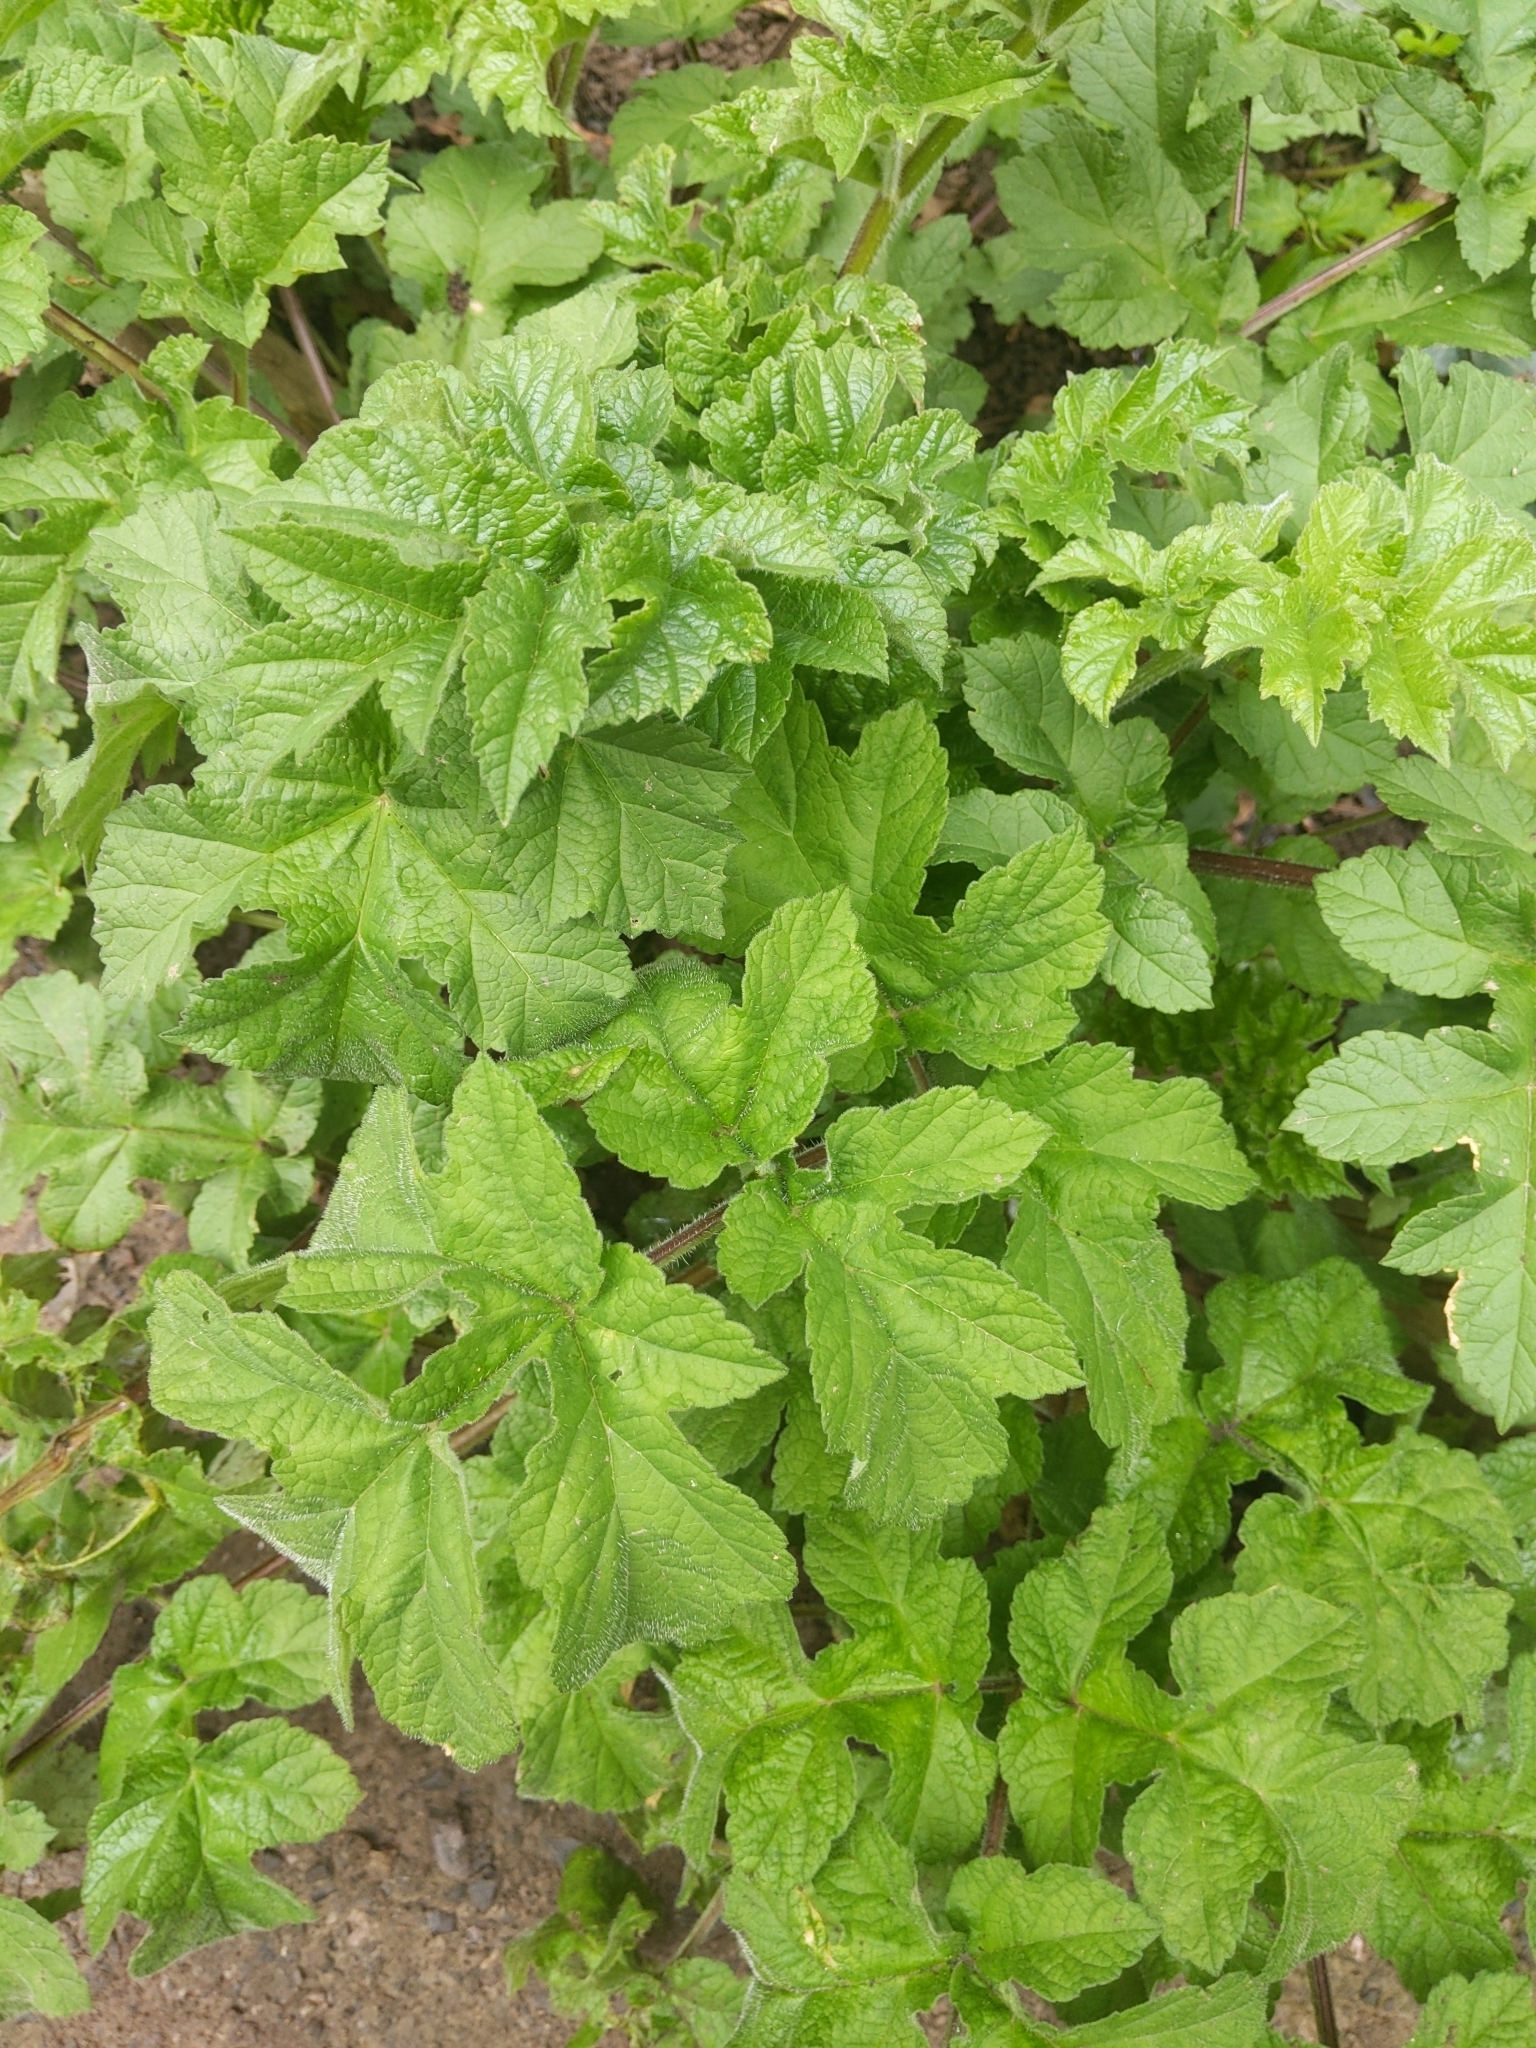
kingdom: Plantae
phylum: Tracheophyta
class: Magnoliopsida
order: Apiales
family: Apiaceae
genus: Heracleum
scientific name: Heracleum sphondylium
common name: Hogweed
